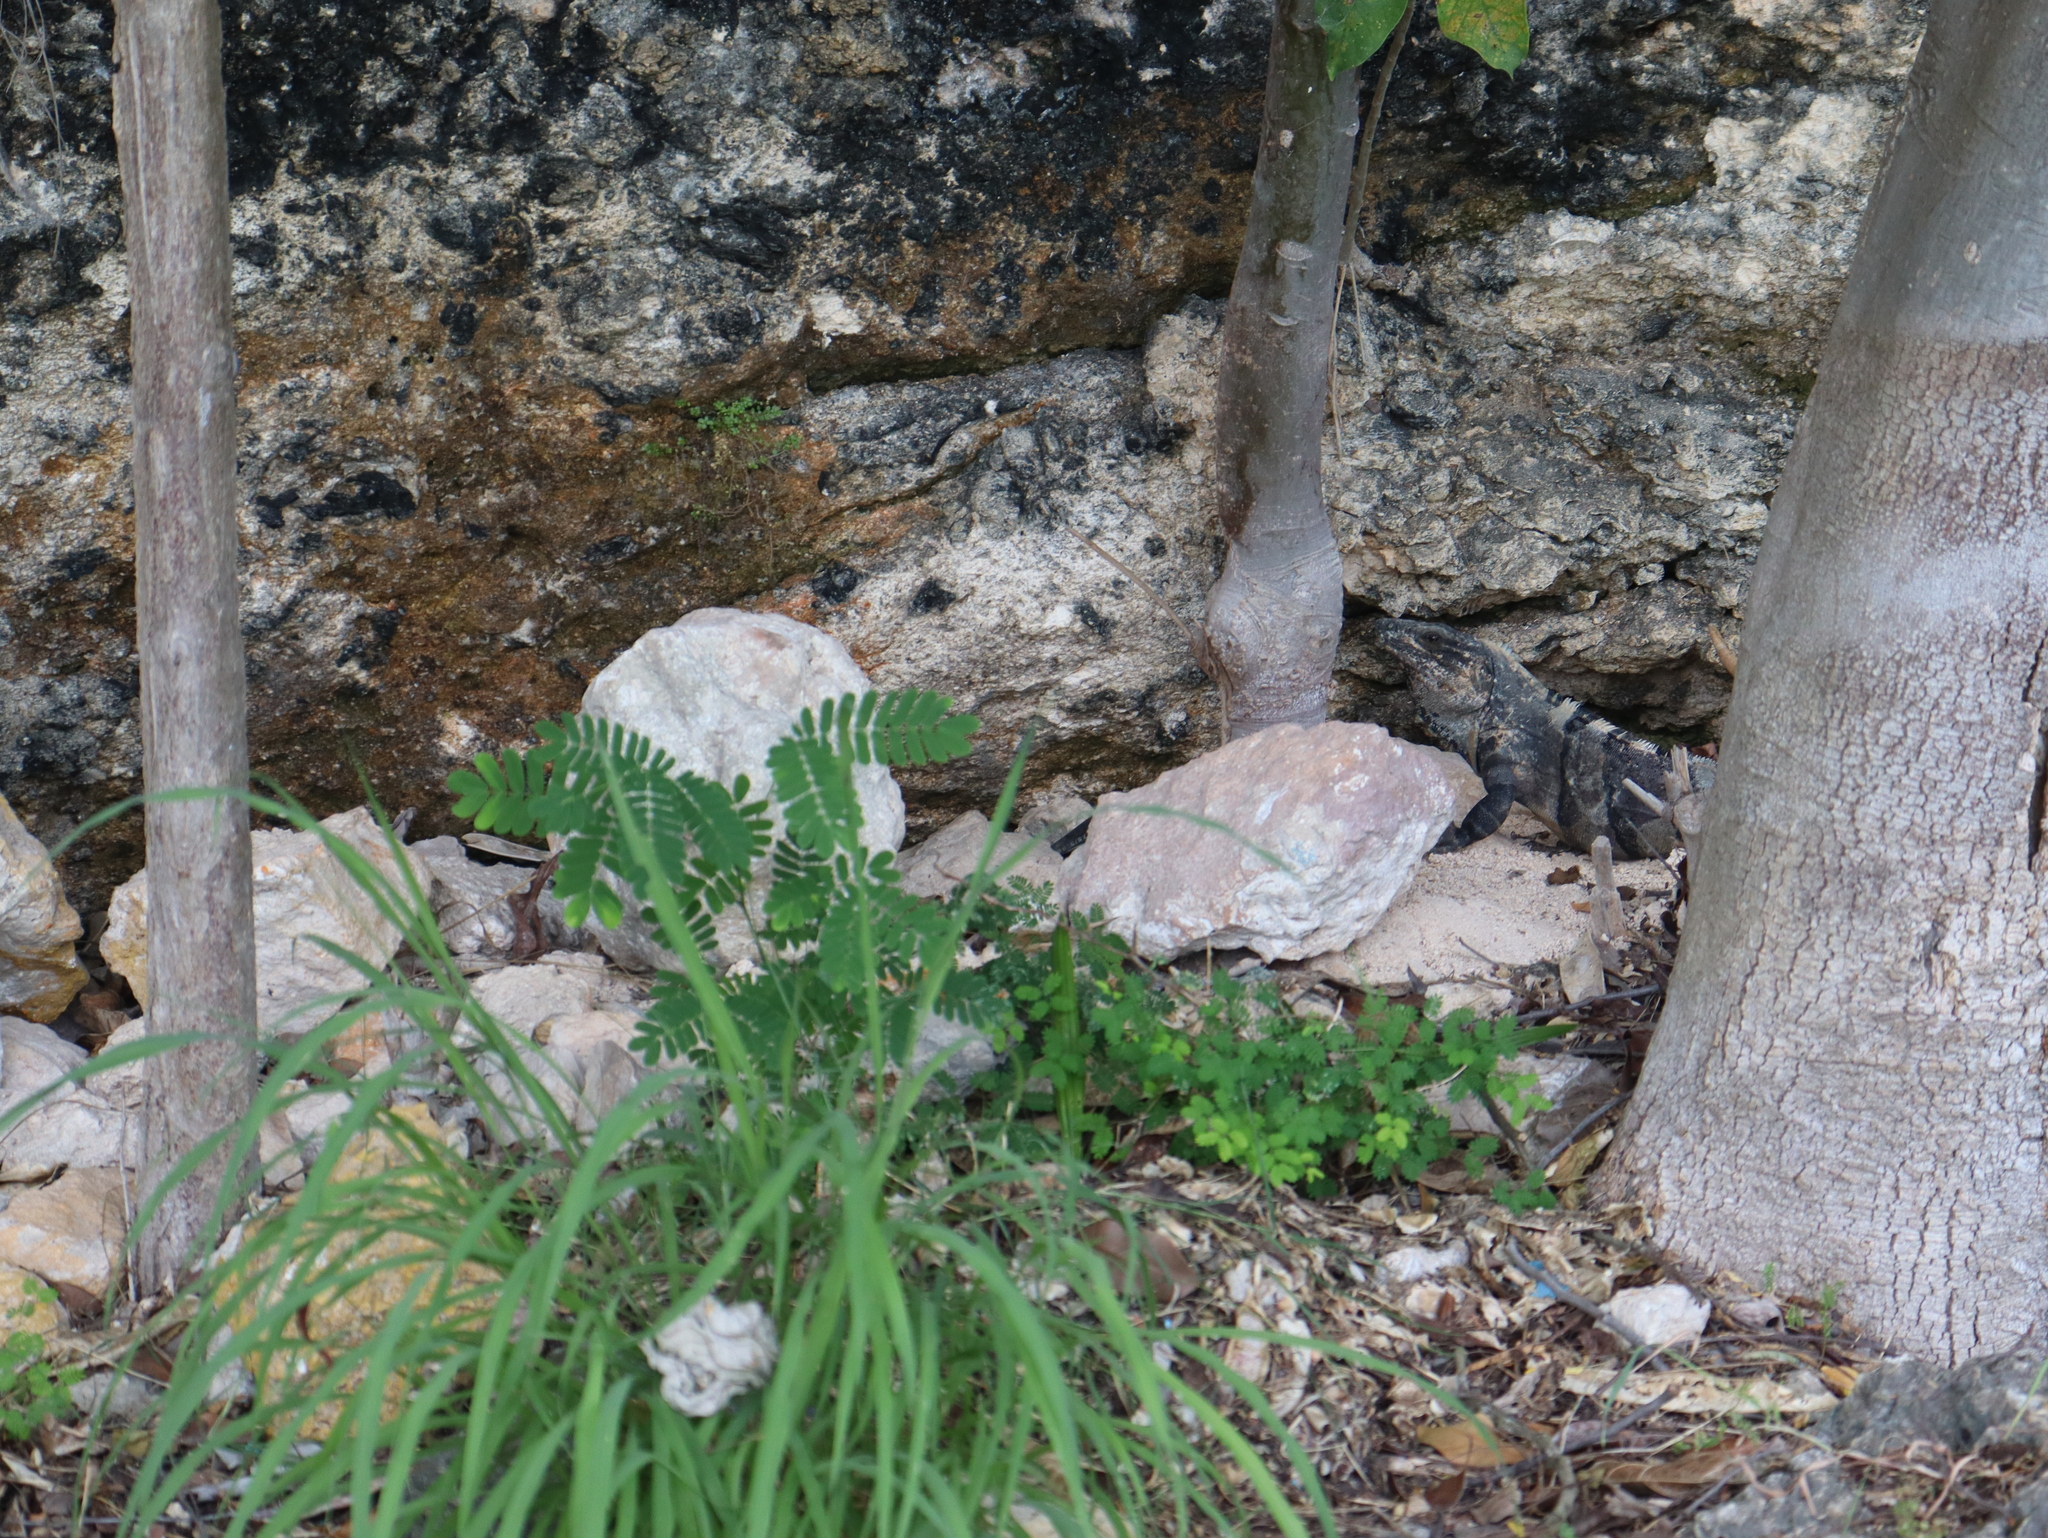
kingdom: Animalia
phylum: Chordata
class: Squamata
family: Iguanidae
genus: Ctenosaura
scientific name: Ctenosaura similis
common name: Black spiny-tailed iguana
